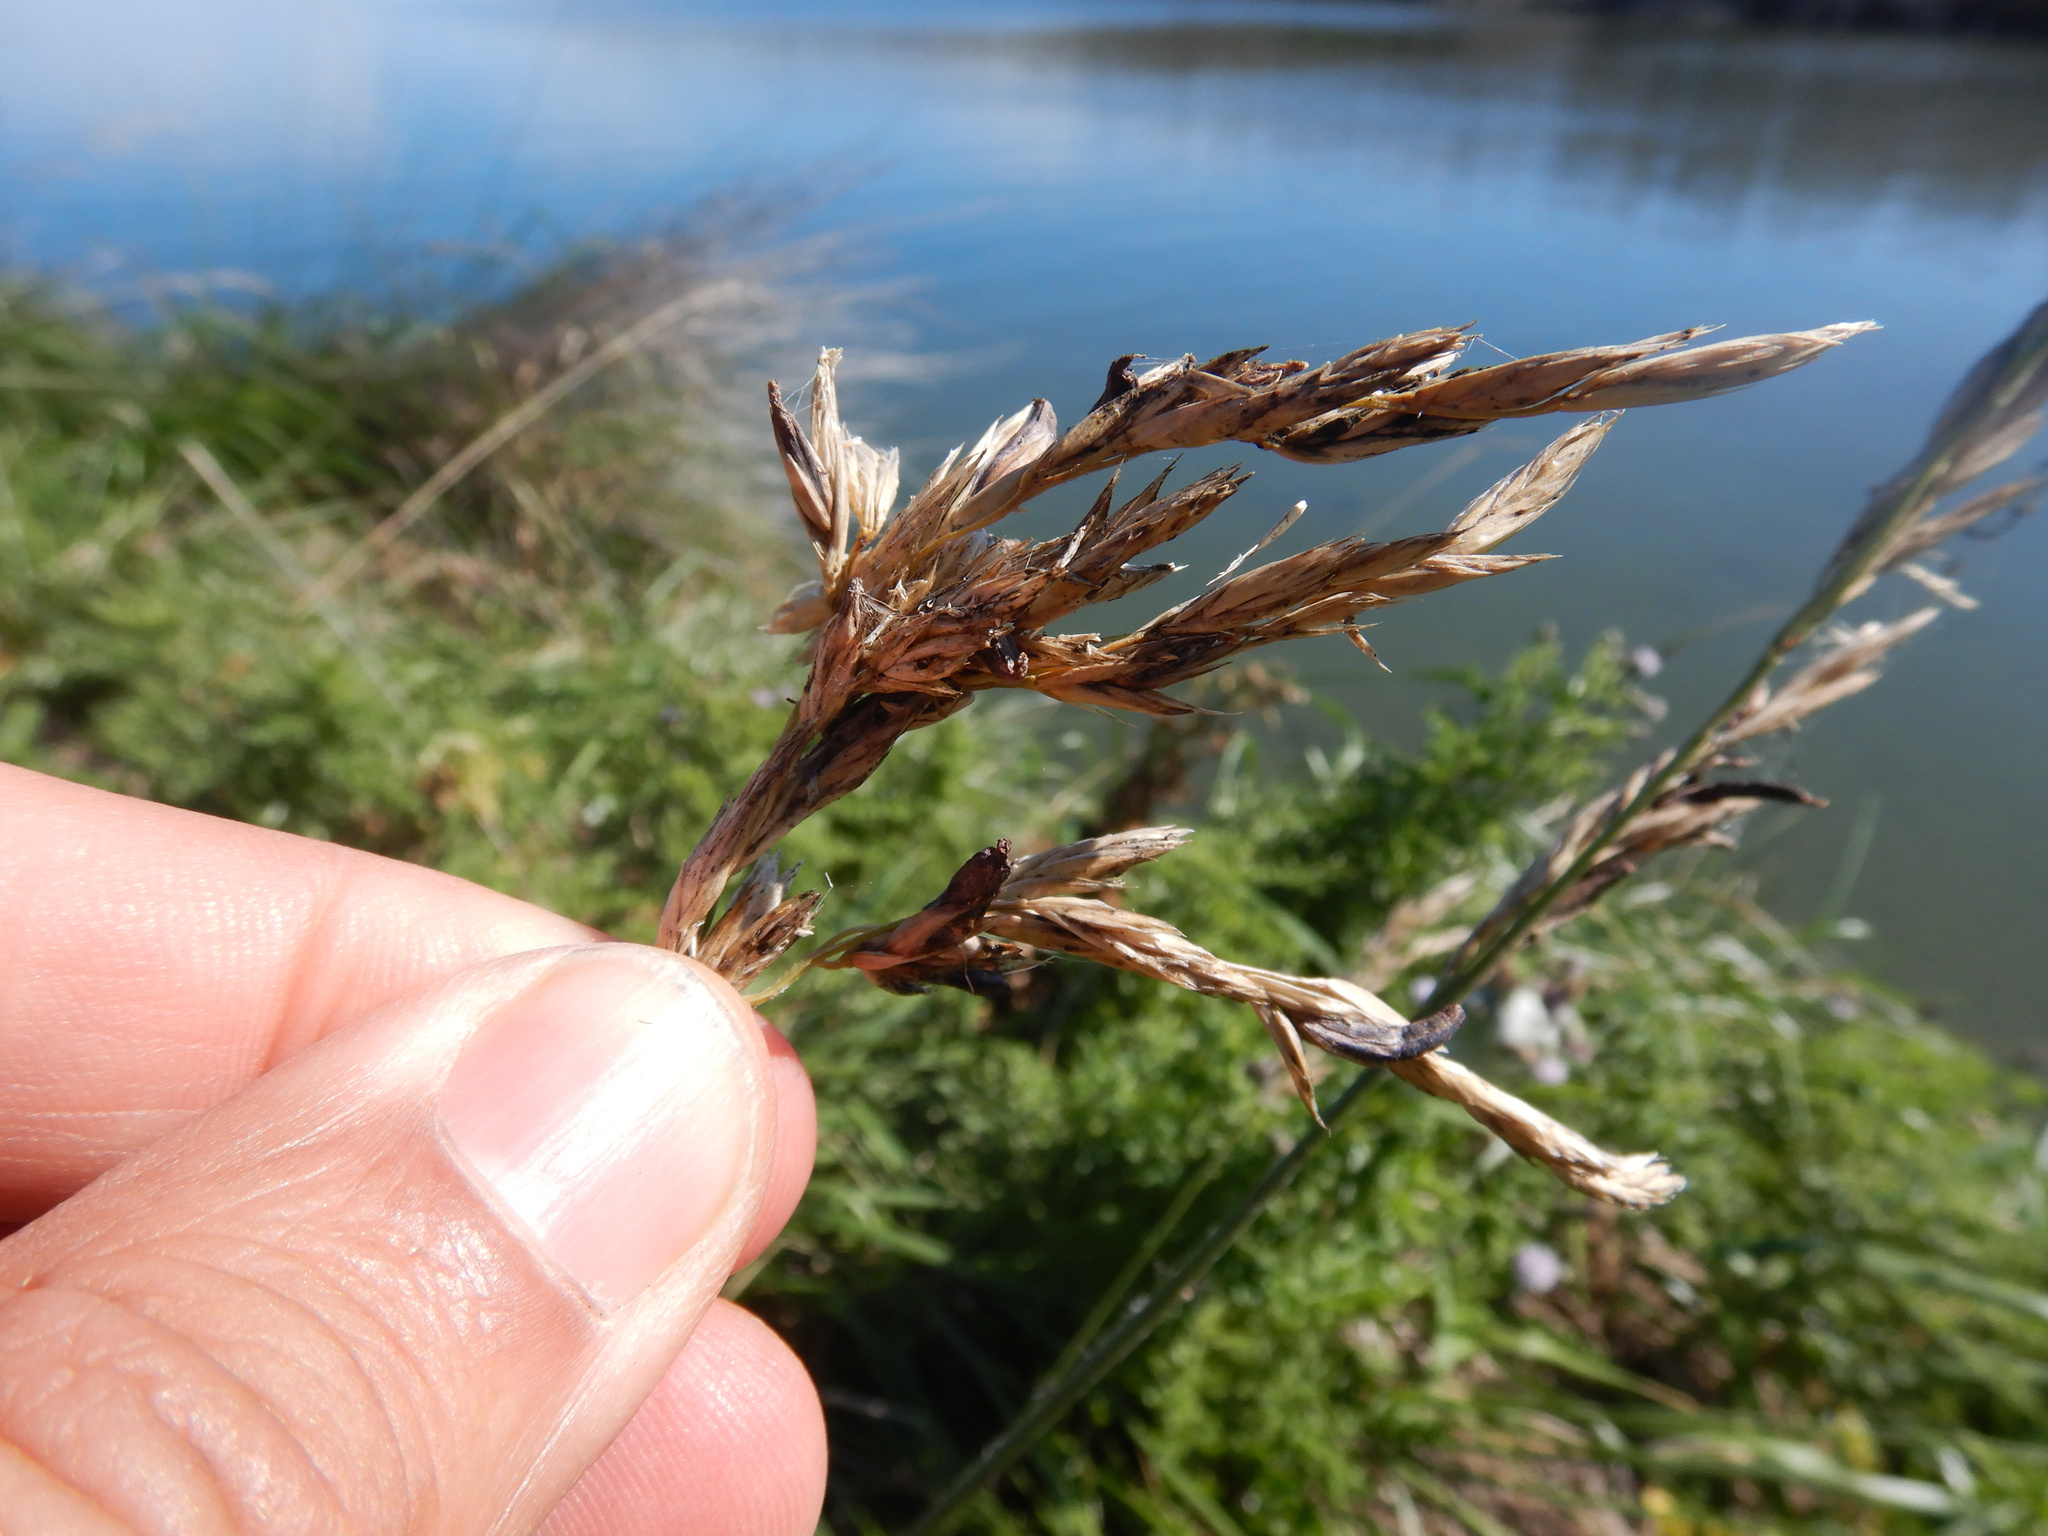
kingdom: Plantae
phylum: Tracheophyta
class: Liliopsida
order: Poales
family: Poaceae
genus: Lolium
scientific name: Lolium arundinaceum
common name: Reed fescue
